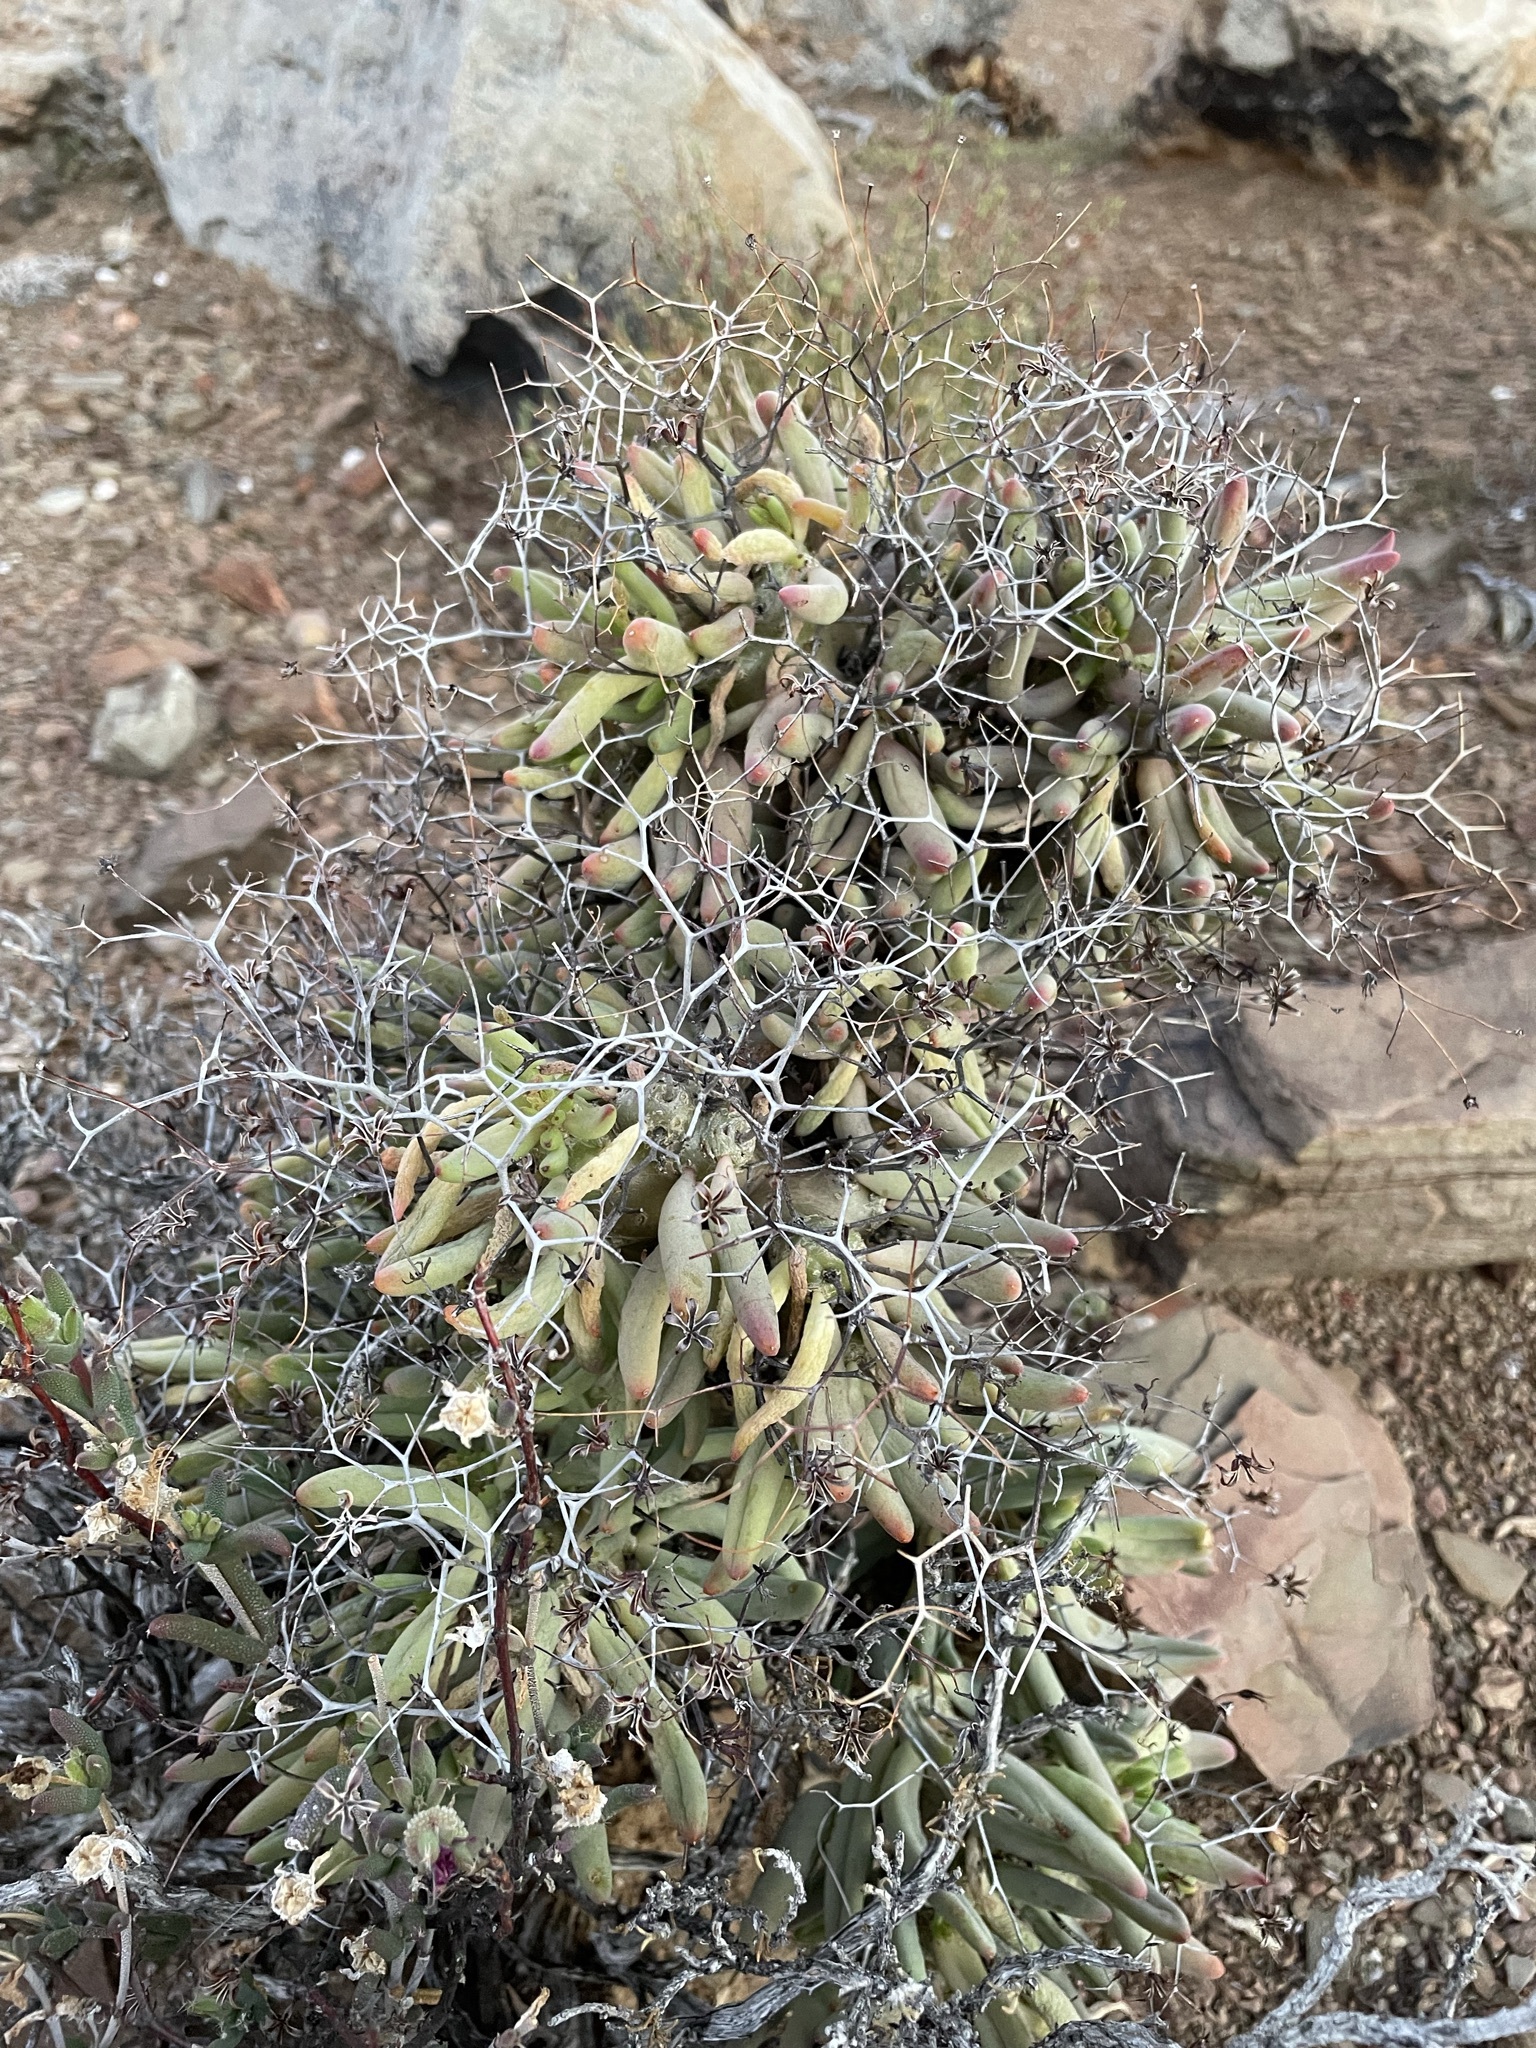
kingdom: Plantae
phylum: Tracheophyta
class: Magnoliopsida
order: Saxifragales
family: Crassulaceae
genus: Tylecodon
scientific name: Tylecodon reticulatus
